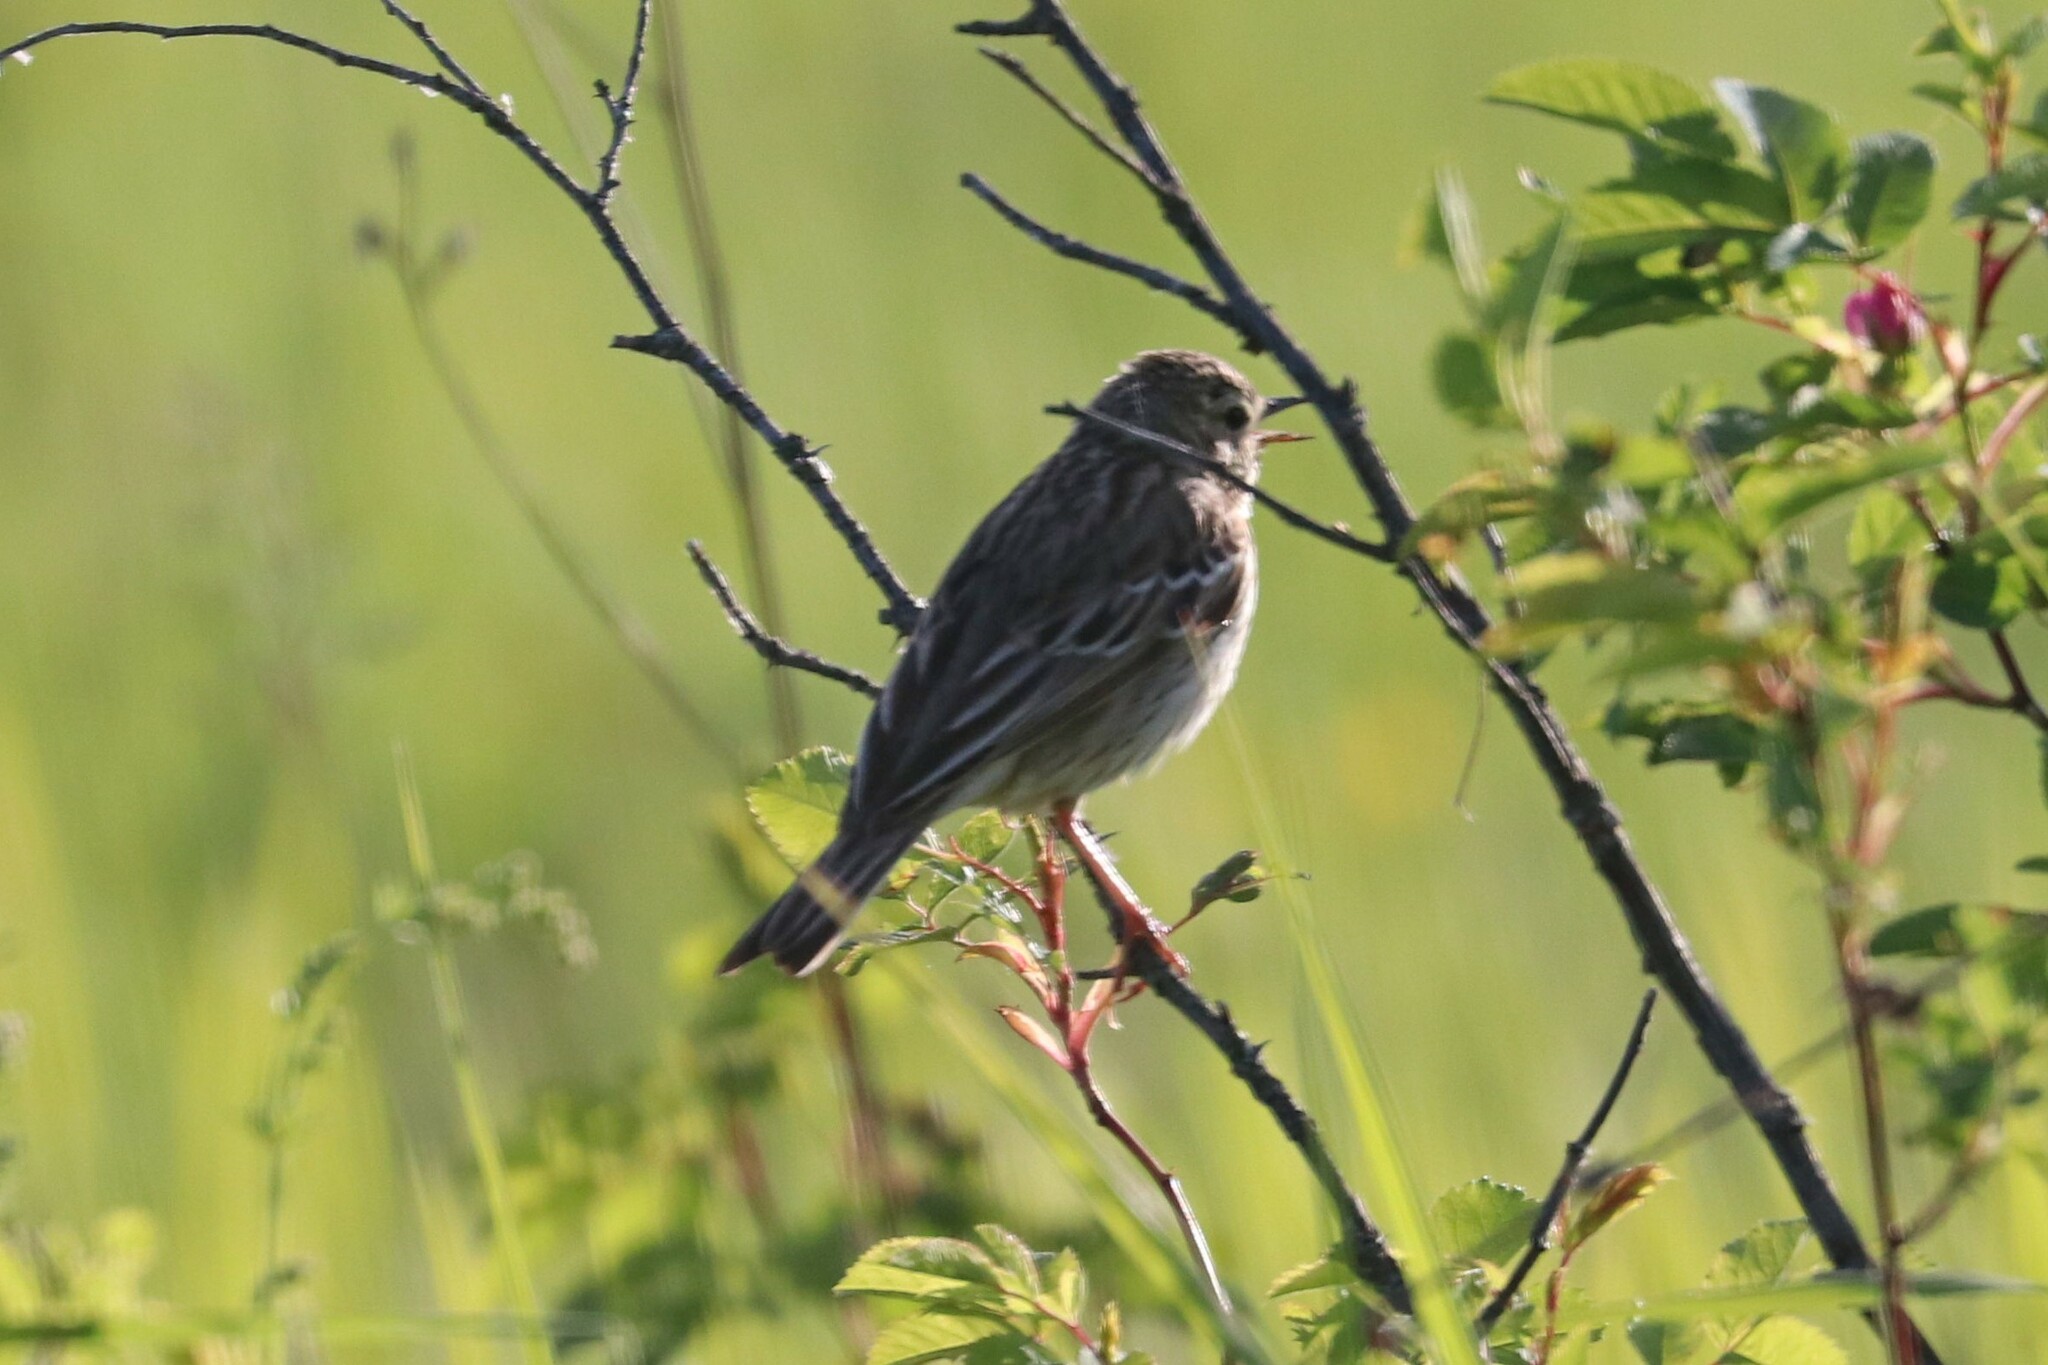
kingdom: Animalia
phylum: Chordata
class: Aves
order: Passeriformes
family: Motacillidae
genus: Anthus
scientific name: Anthus trivialis
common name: Tree pipit
